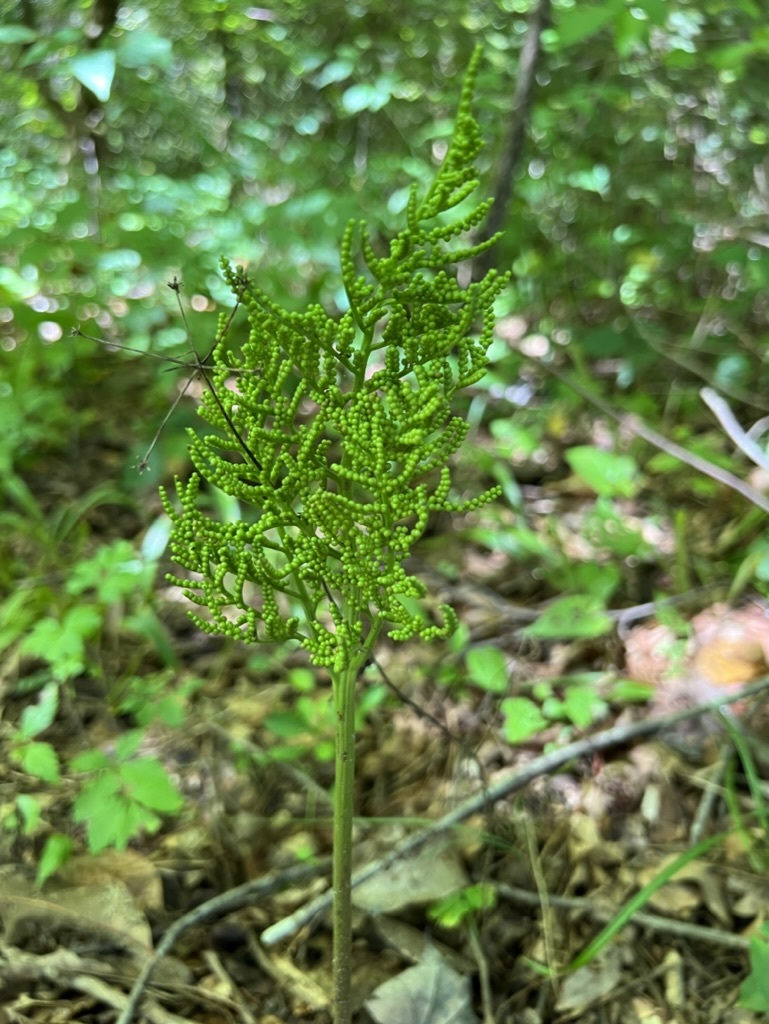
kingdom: Plantae
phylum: Tracheophyta
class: Polypodiopsida
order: Ophioglossales
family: Ophioglossaceae
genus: Sceptridium
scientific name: Sceptridium dissectum
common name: Cut-leaved grapefern
